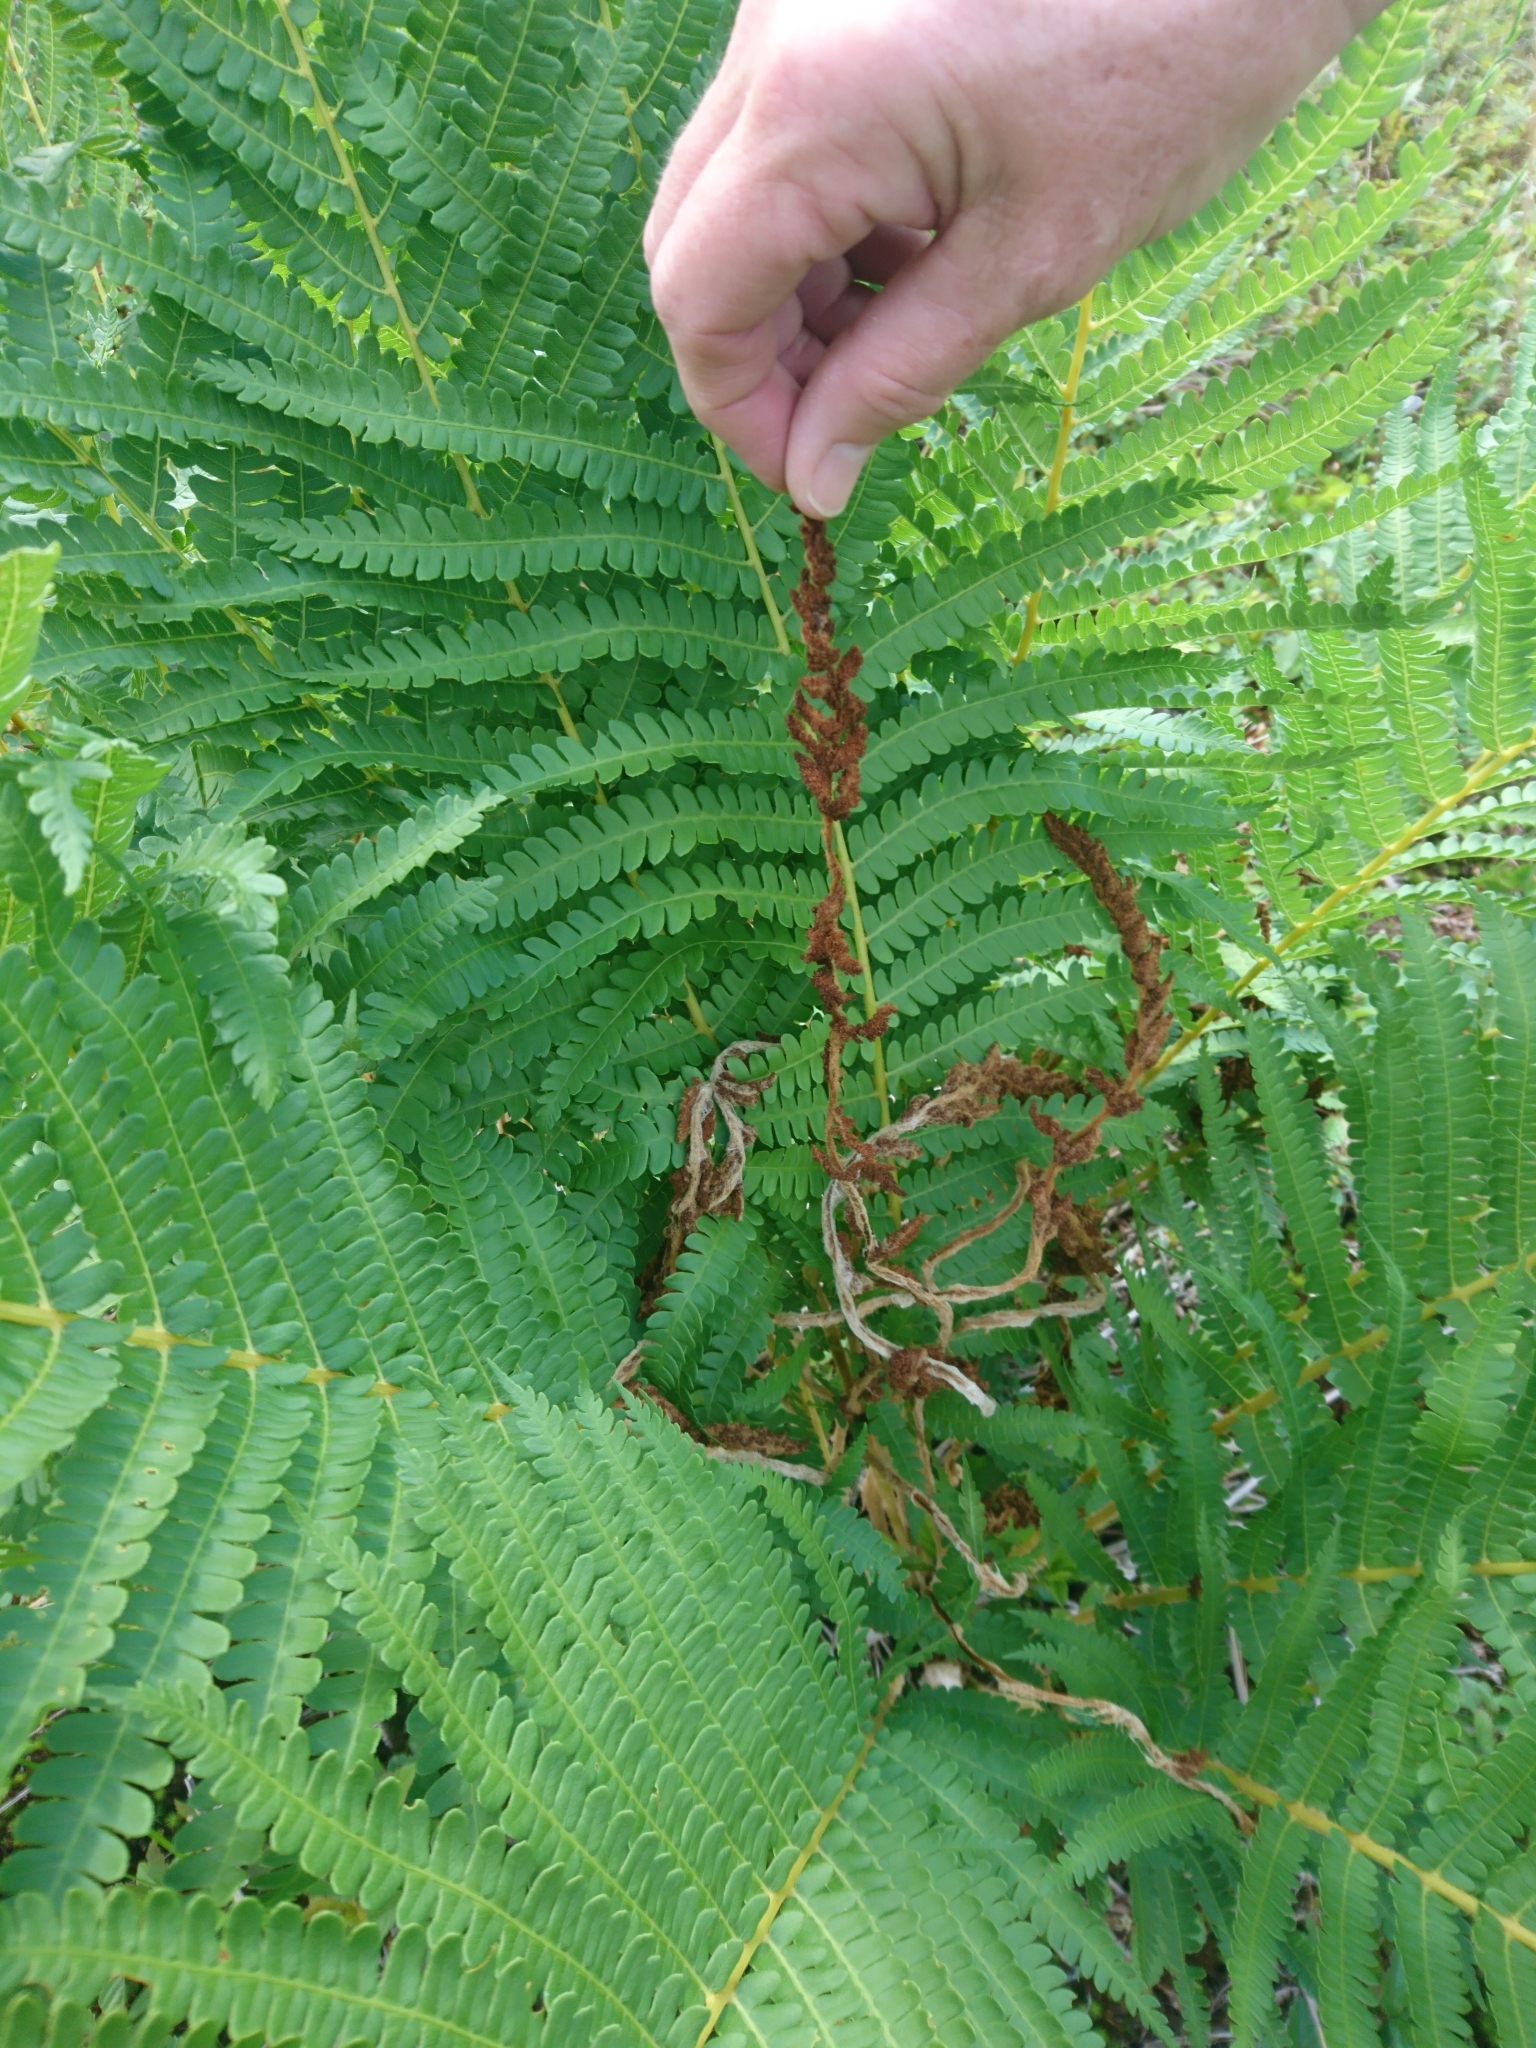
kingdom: Plantae
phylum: Tracheophyta
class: Polypodiopsida
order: Osmundales
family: Osmundaceae
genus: Osmundastrum
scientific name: Osmundastrum cinnamomeum
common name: Cinnamon fern
